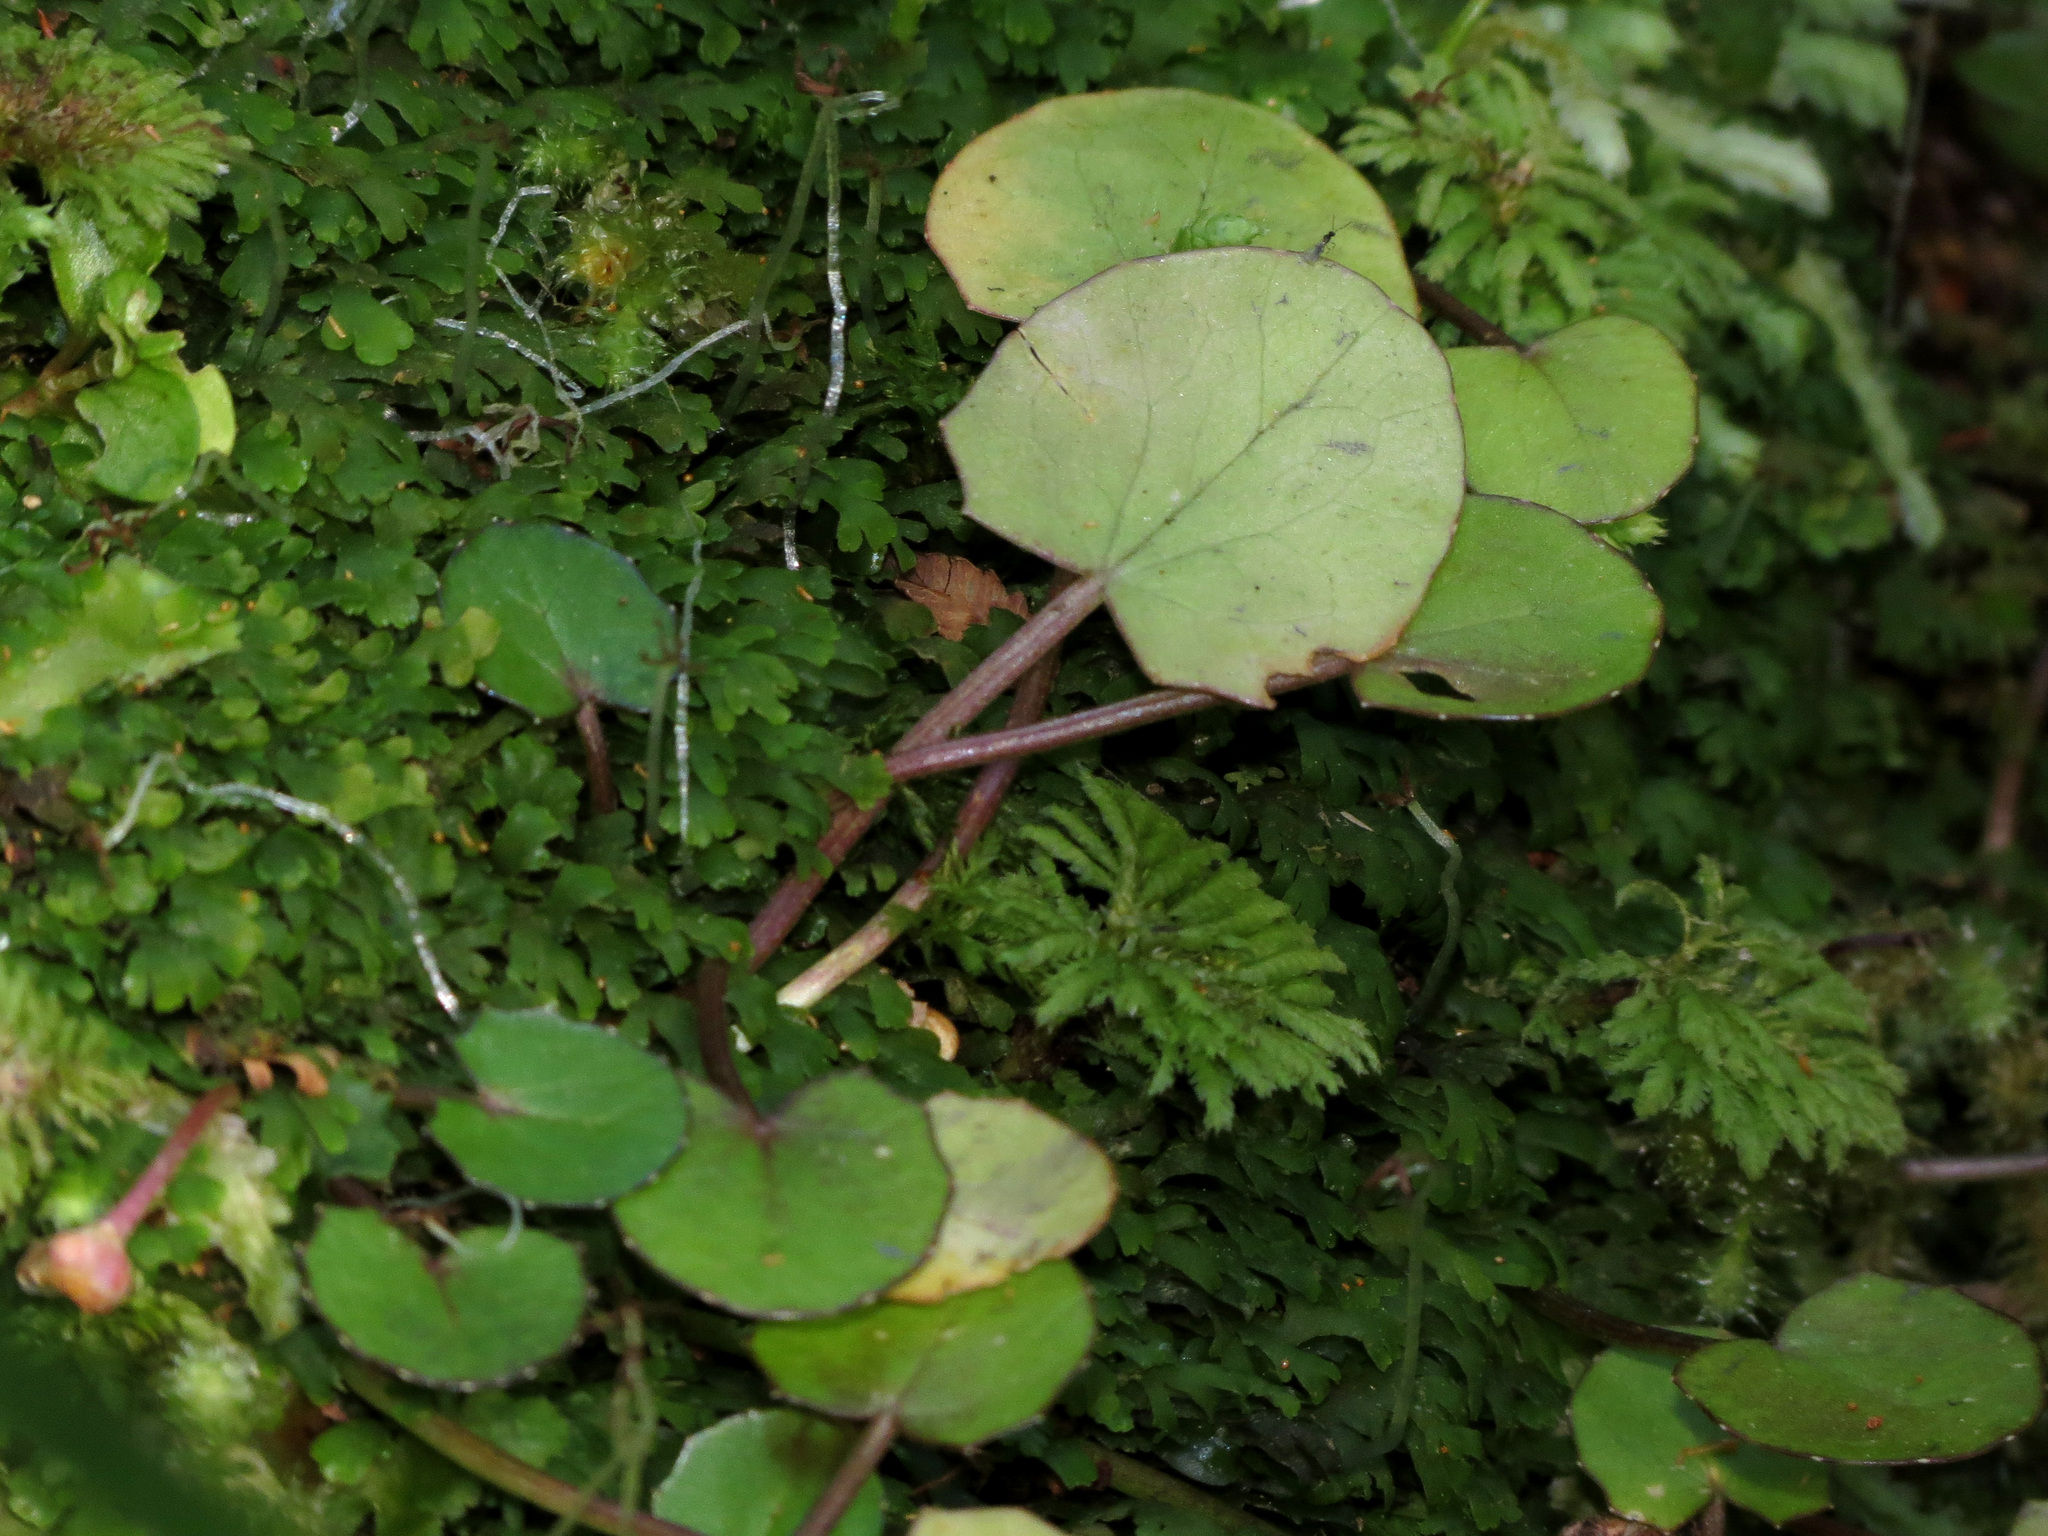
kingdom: Plantae
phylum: Tracheophyta
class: Magnoliopsida
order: Apiales
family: Apiaceae
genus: Centella
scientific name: Centella uniflora
